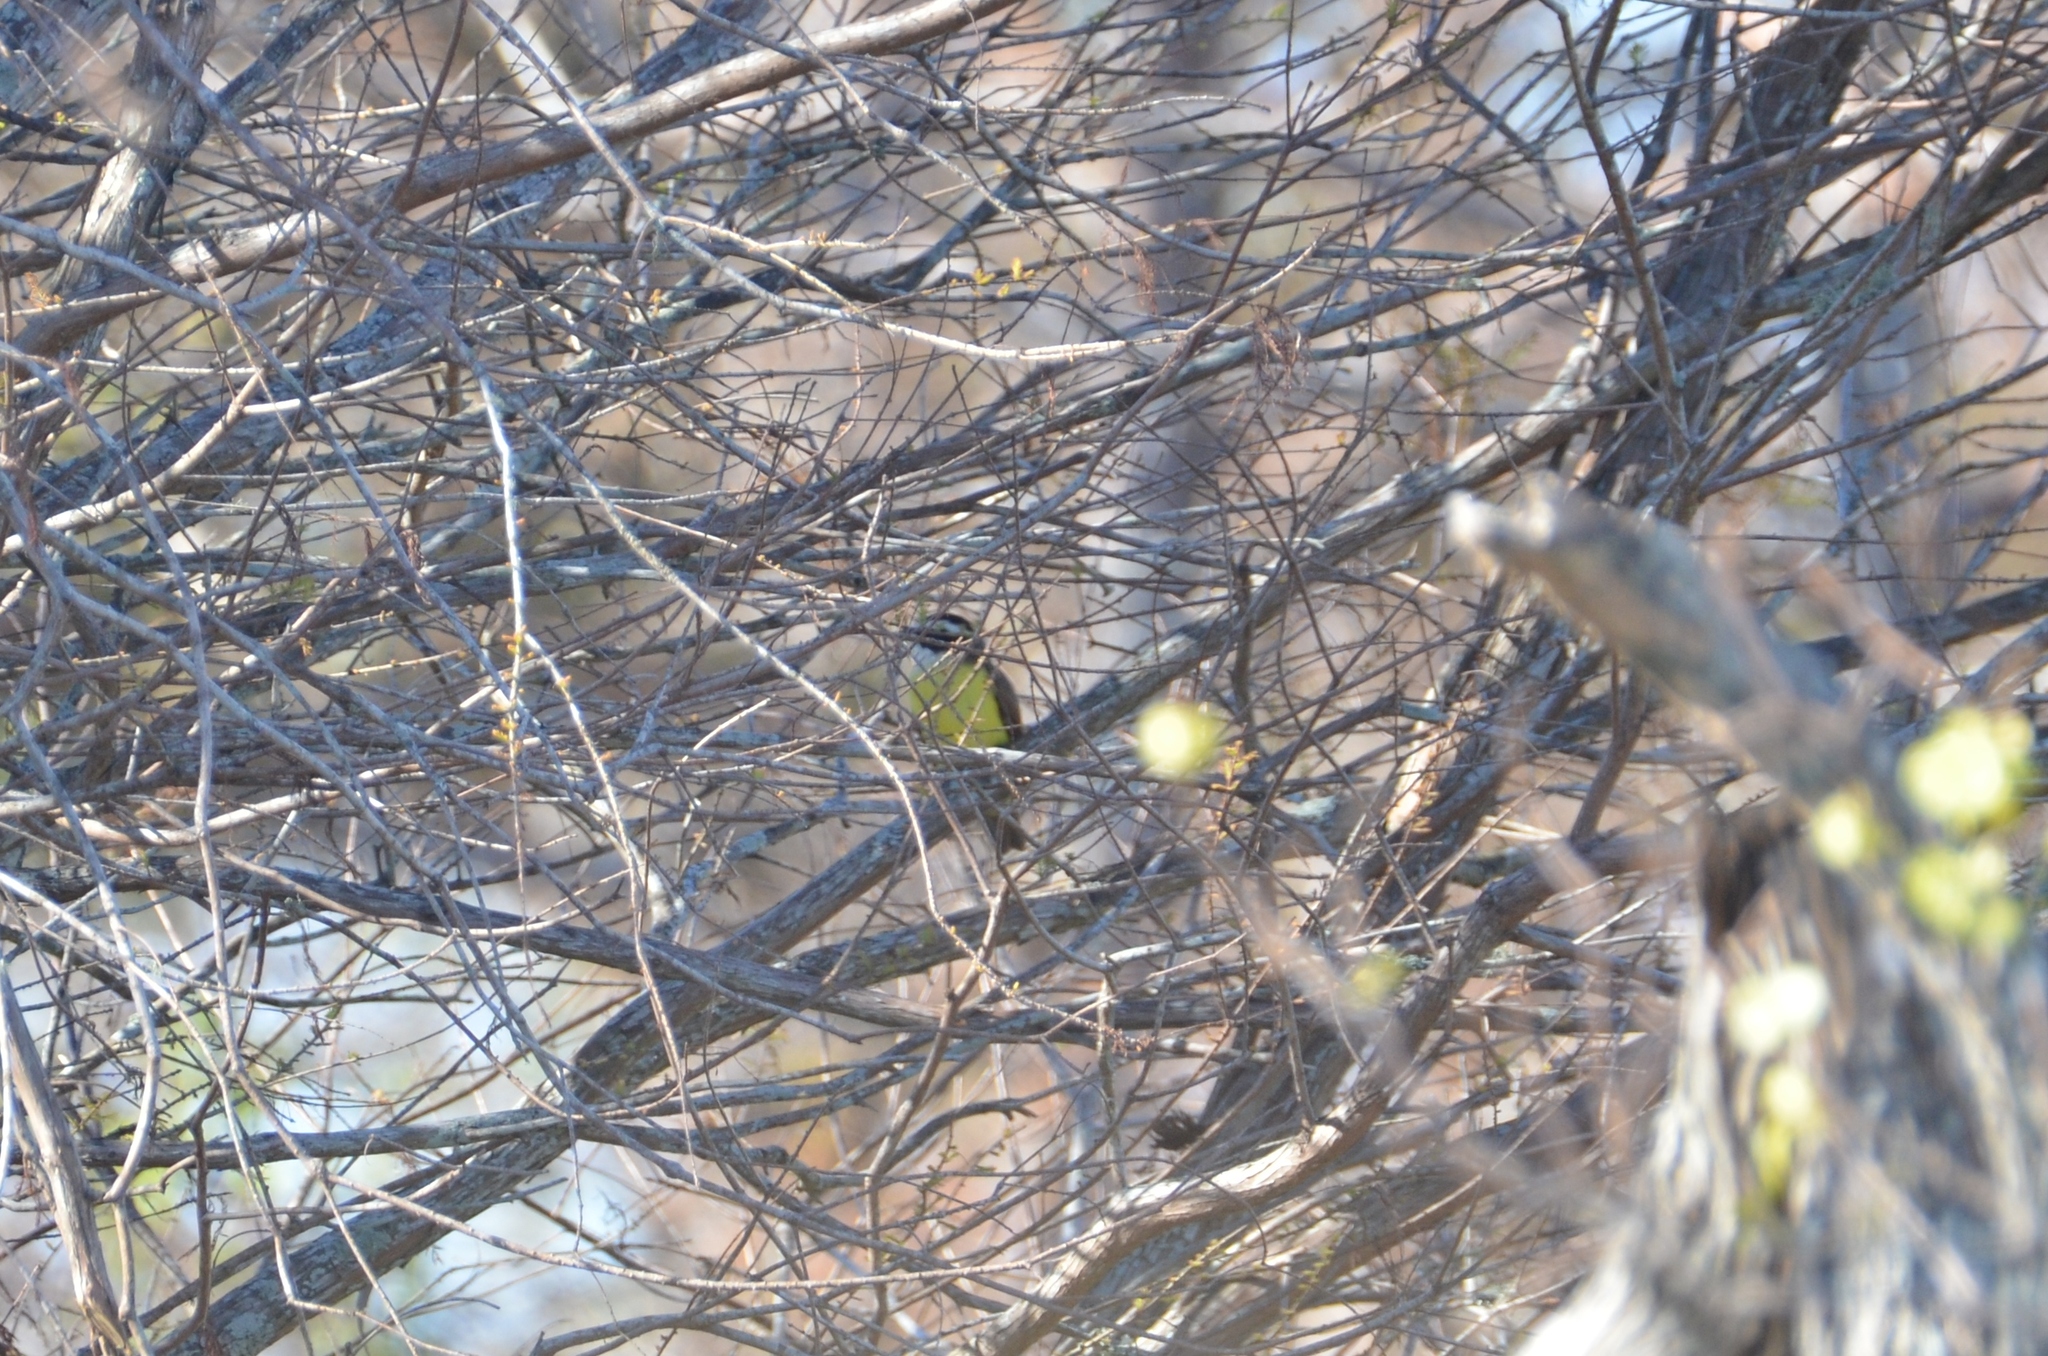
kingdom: Animalia
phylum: Chordata
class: Aves
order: Passeriformes
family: Tyrannidae
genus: Pitangus
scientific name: Pitangus sulphuratus
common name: Great kiskadee
